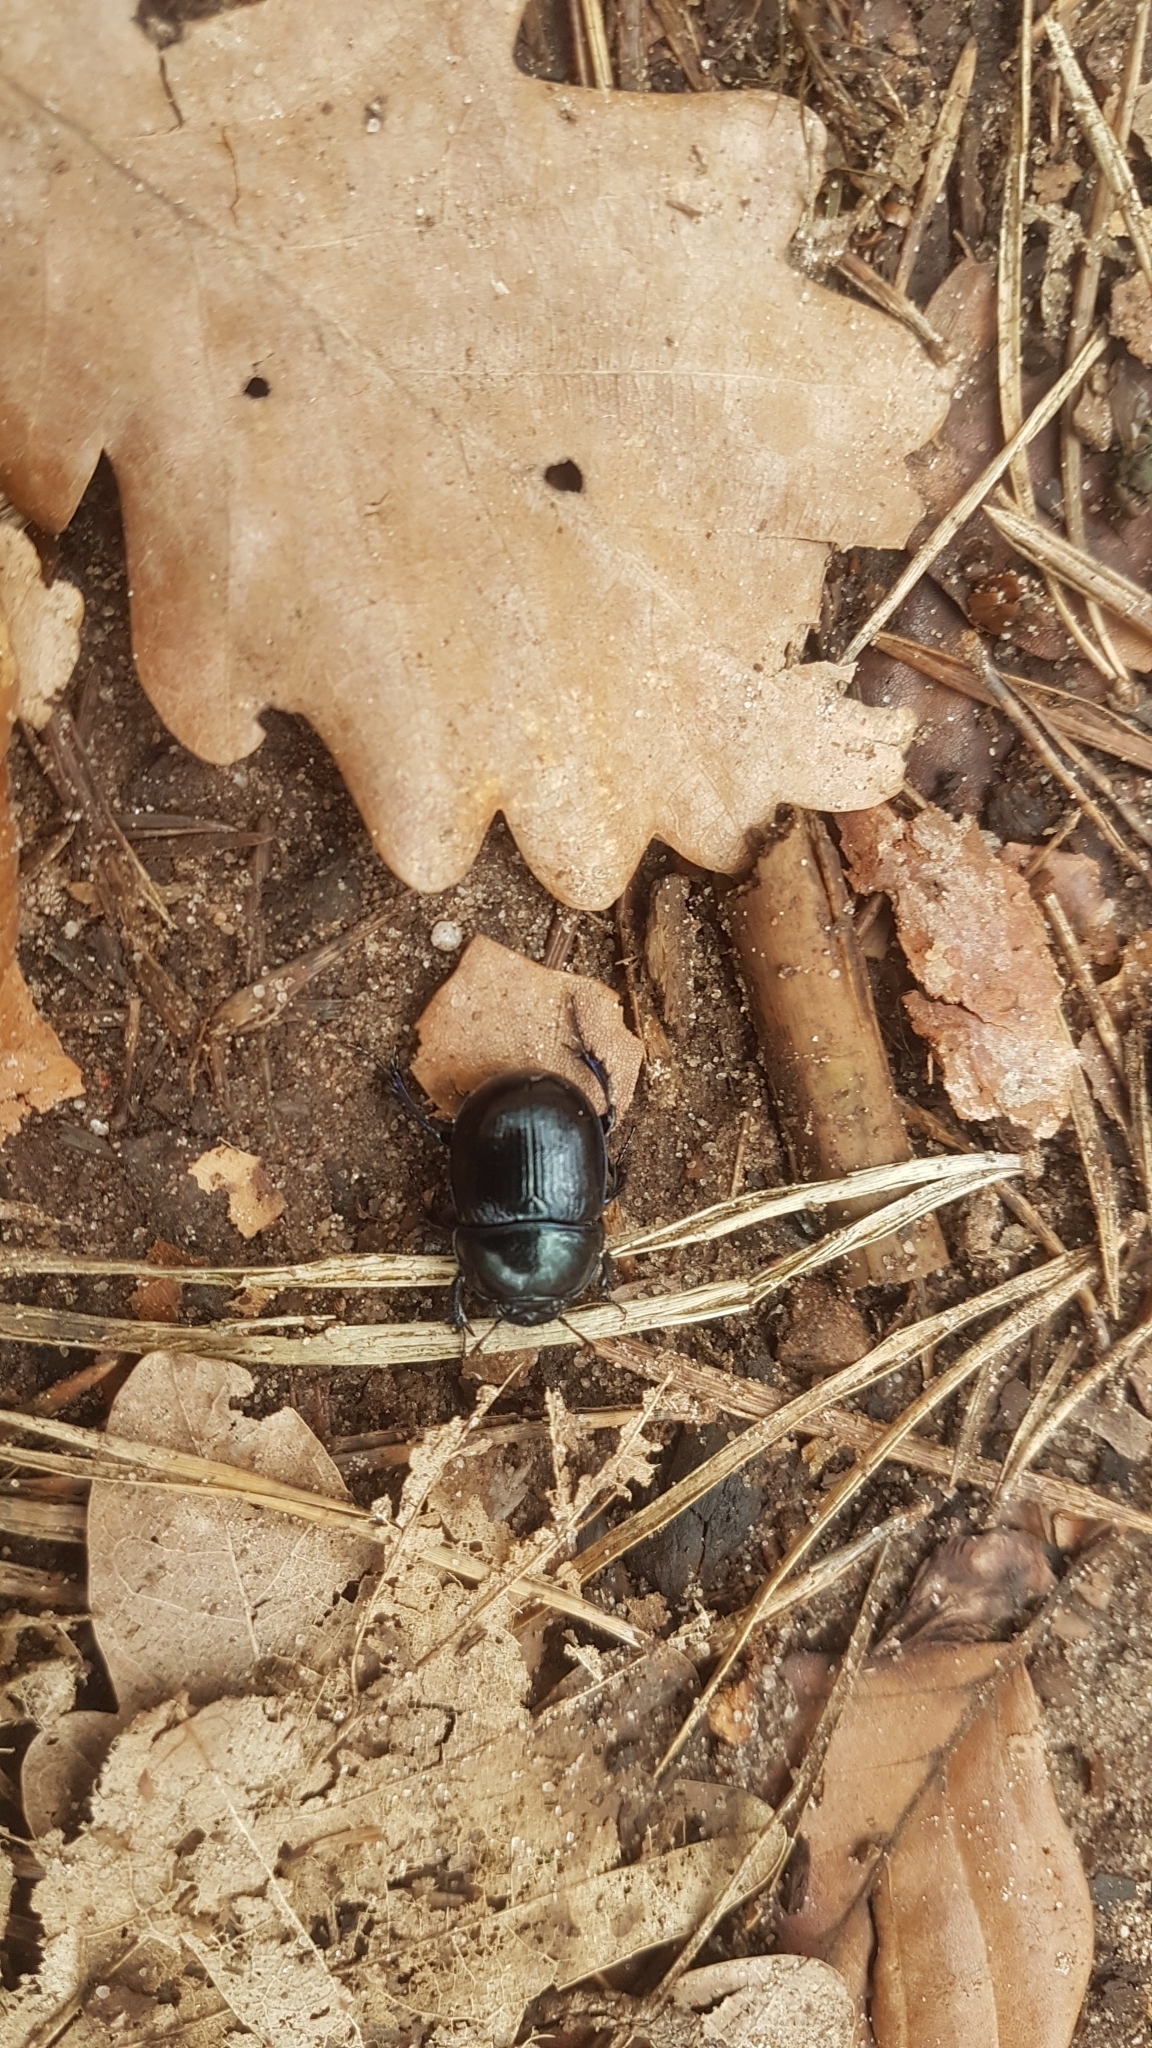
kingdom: Animalia
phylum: Arthropoda
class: Insecta
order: Coleoptera
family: Geotrupidae
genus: Anoplotrupes
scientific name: Anoplotrupes stercorosus
